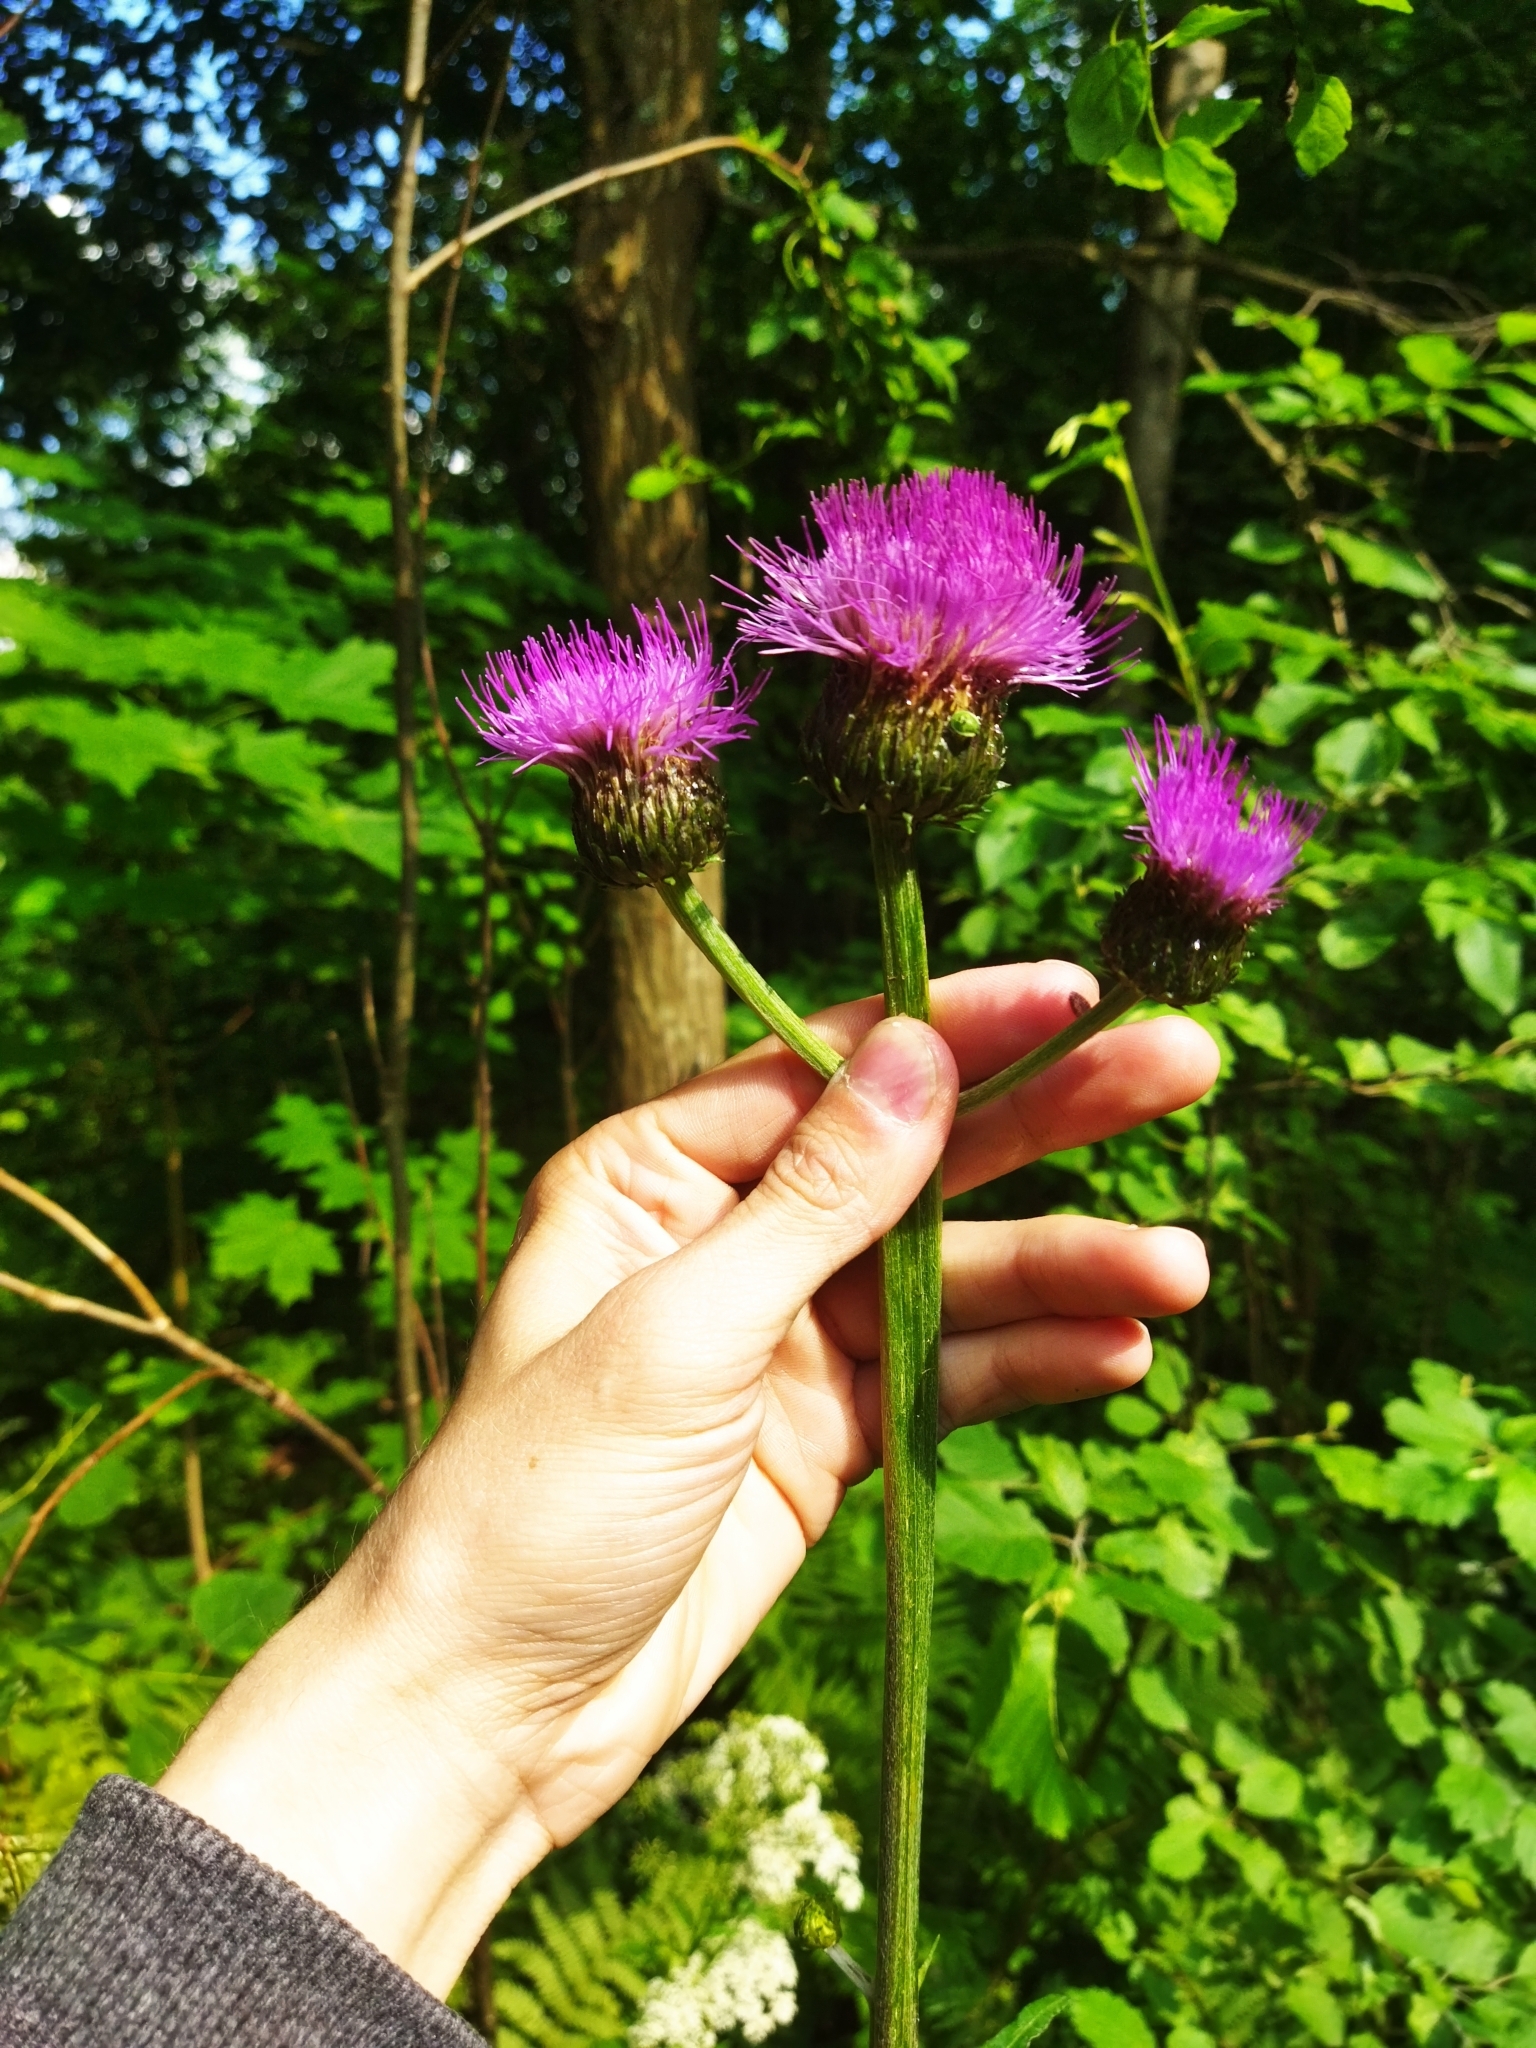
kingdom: Plantae
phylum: Tracheophyta
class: Magnoliopsida
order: Asterales
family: Asteraceae
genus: Cirsium
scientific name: Cirsium heterophyllum
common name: Melancholy thistle
